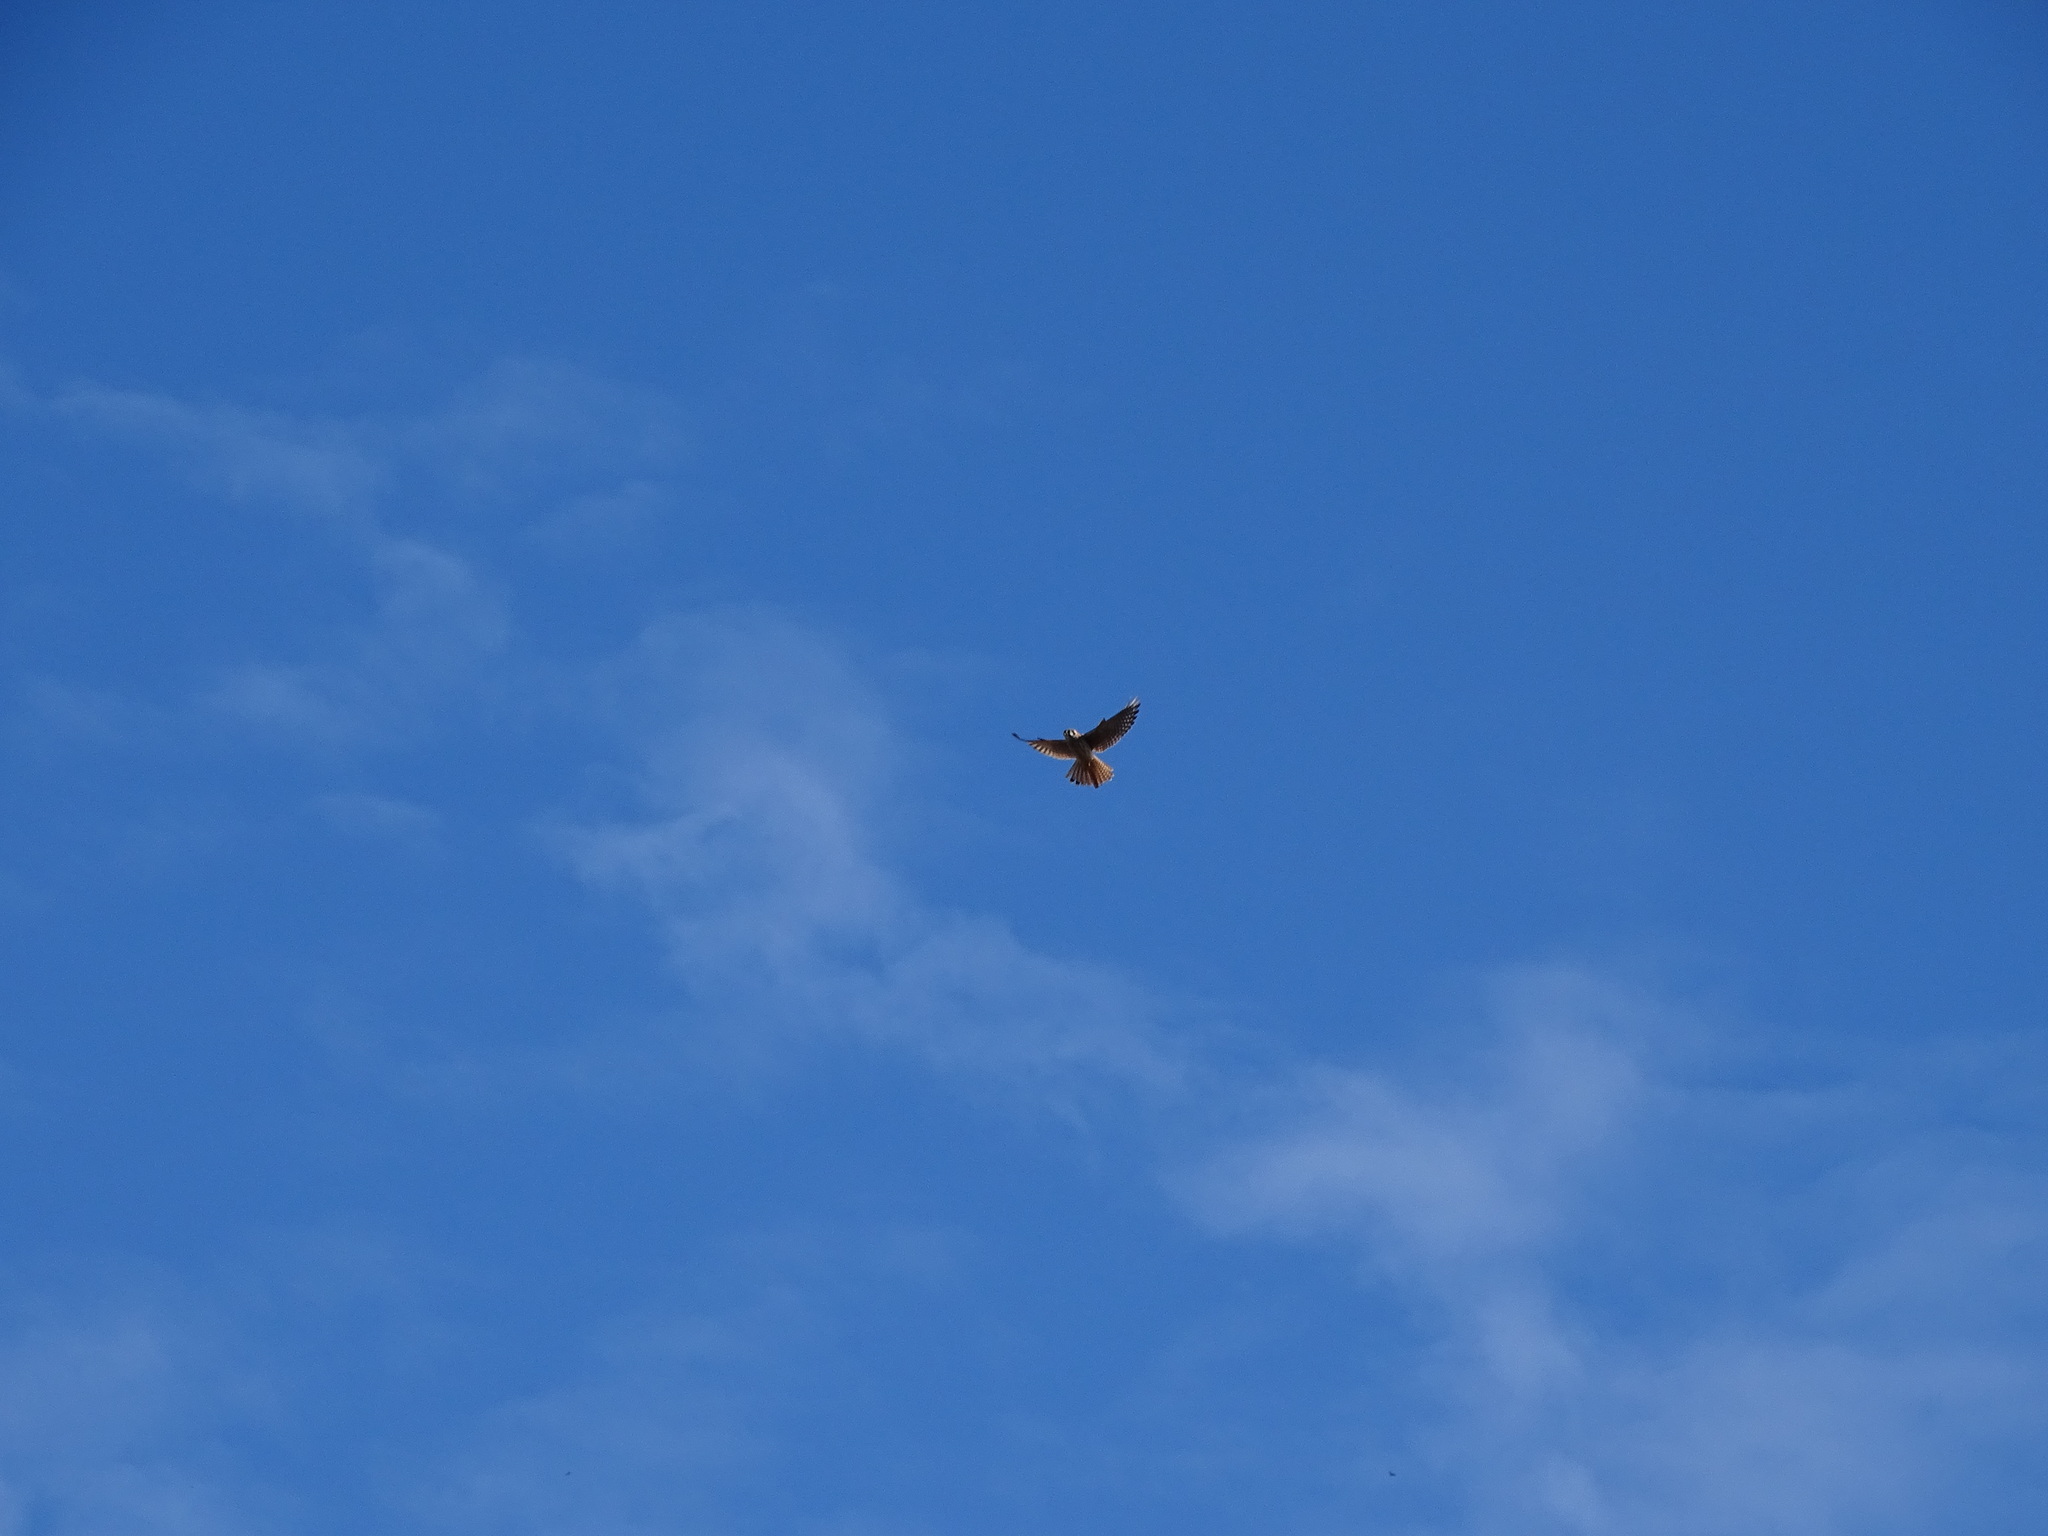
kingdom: Animalia
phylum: Chordata
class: Aves
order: Falconiformes
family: Falconidae
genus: Falco
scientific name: Falco sparverius
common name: American kestrel
